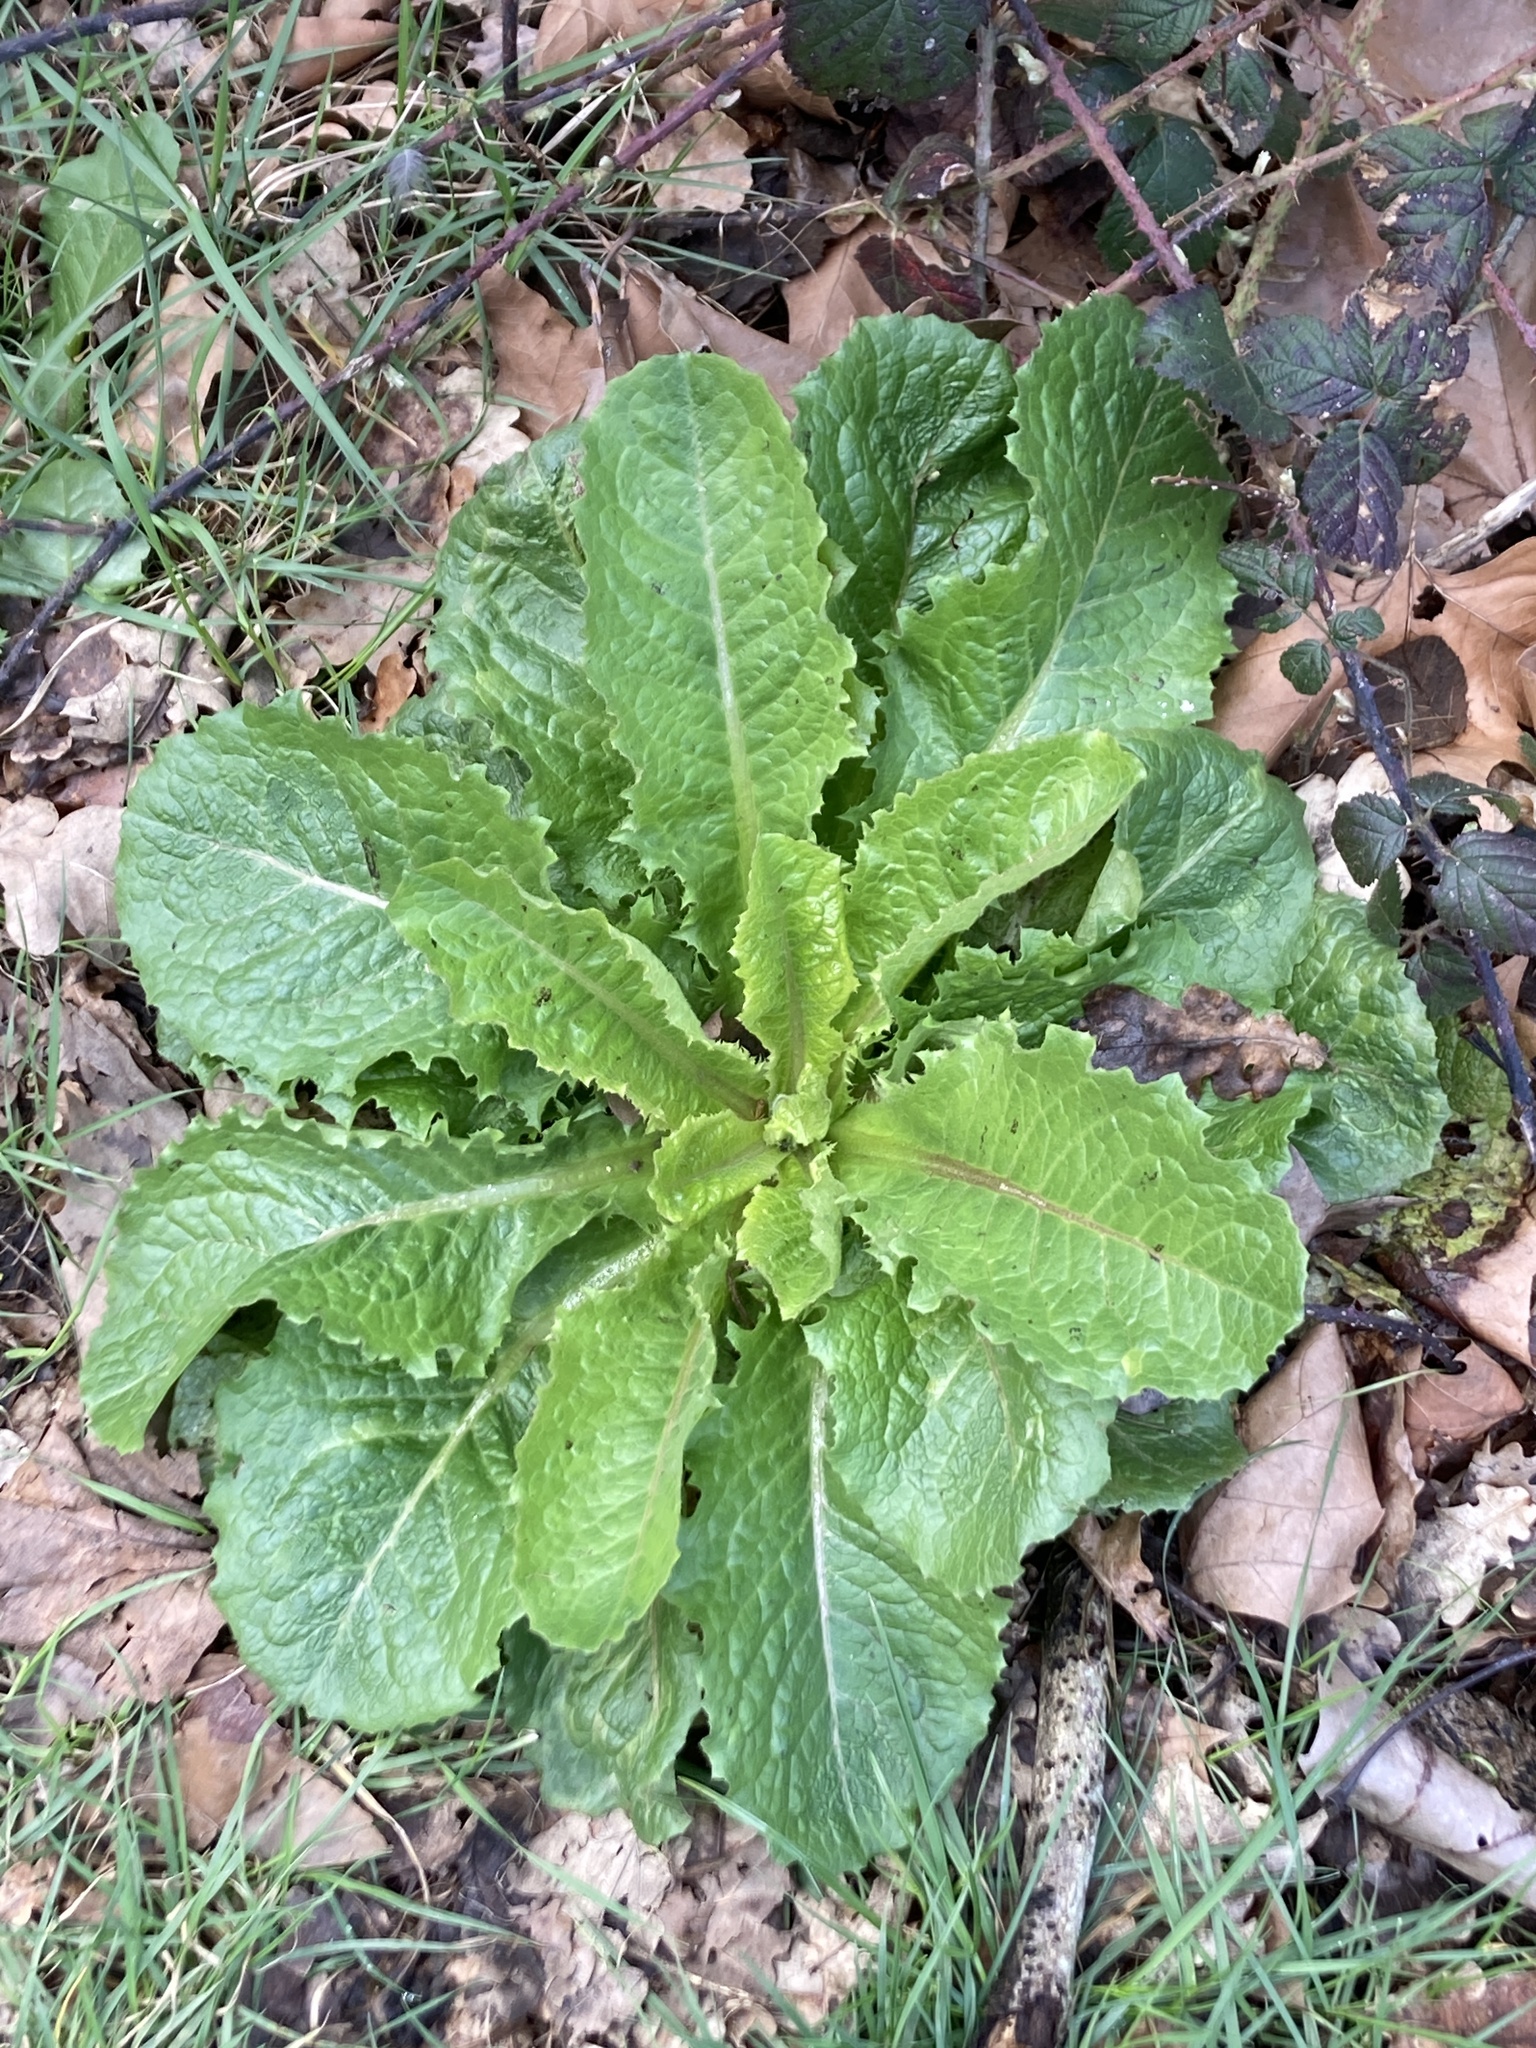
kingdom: Plantae
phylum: Tracheophyta
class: Magnoliopsida
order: Asterales
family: Asteraceae
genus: Lactuca
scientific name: Lactuca virosa
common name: Great lettuce
